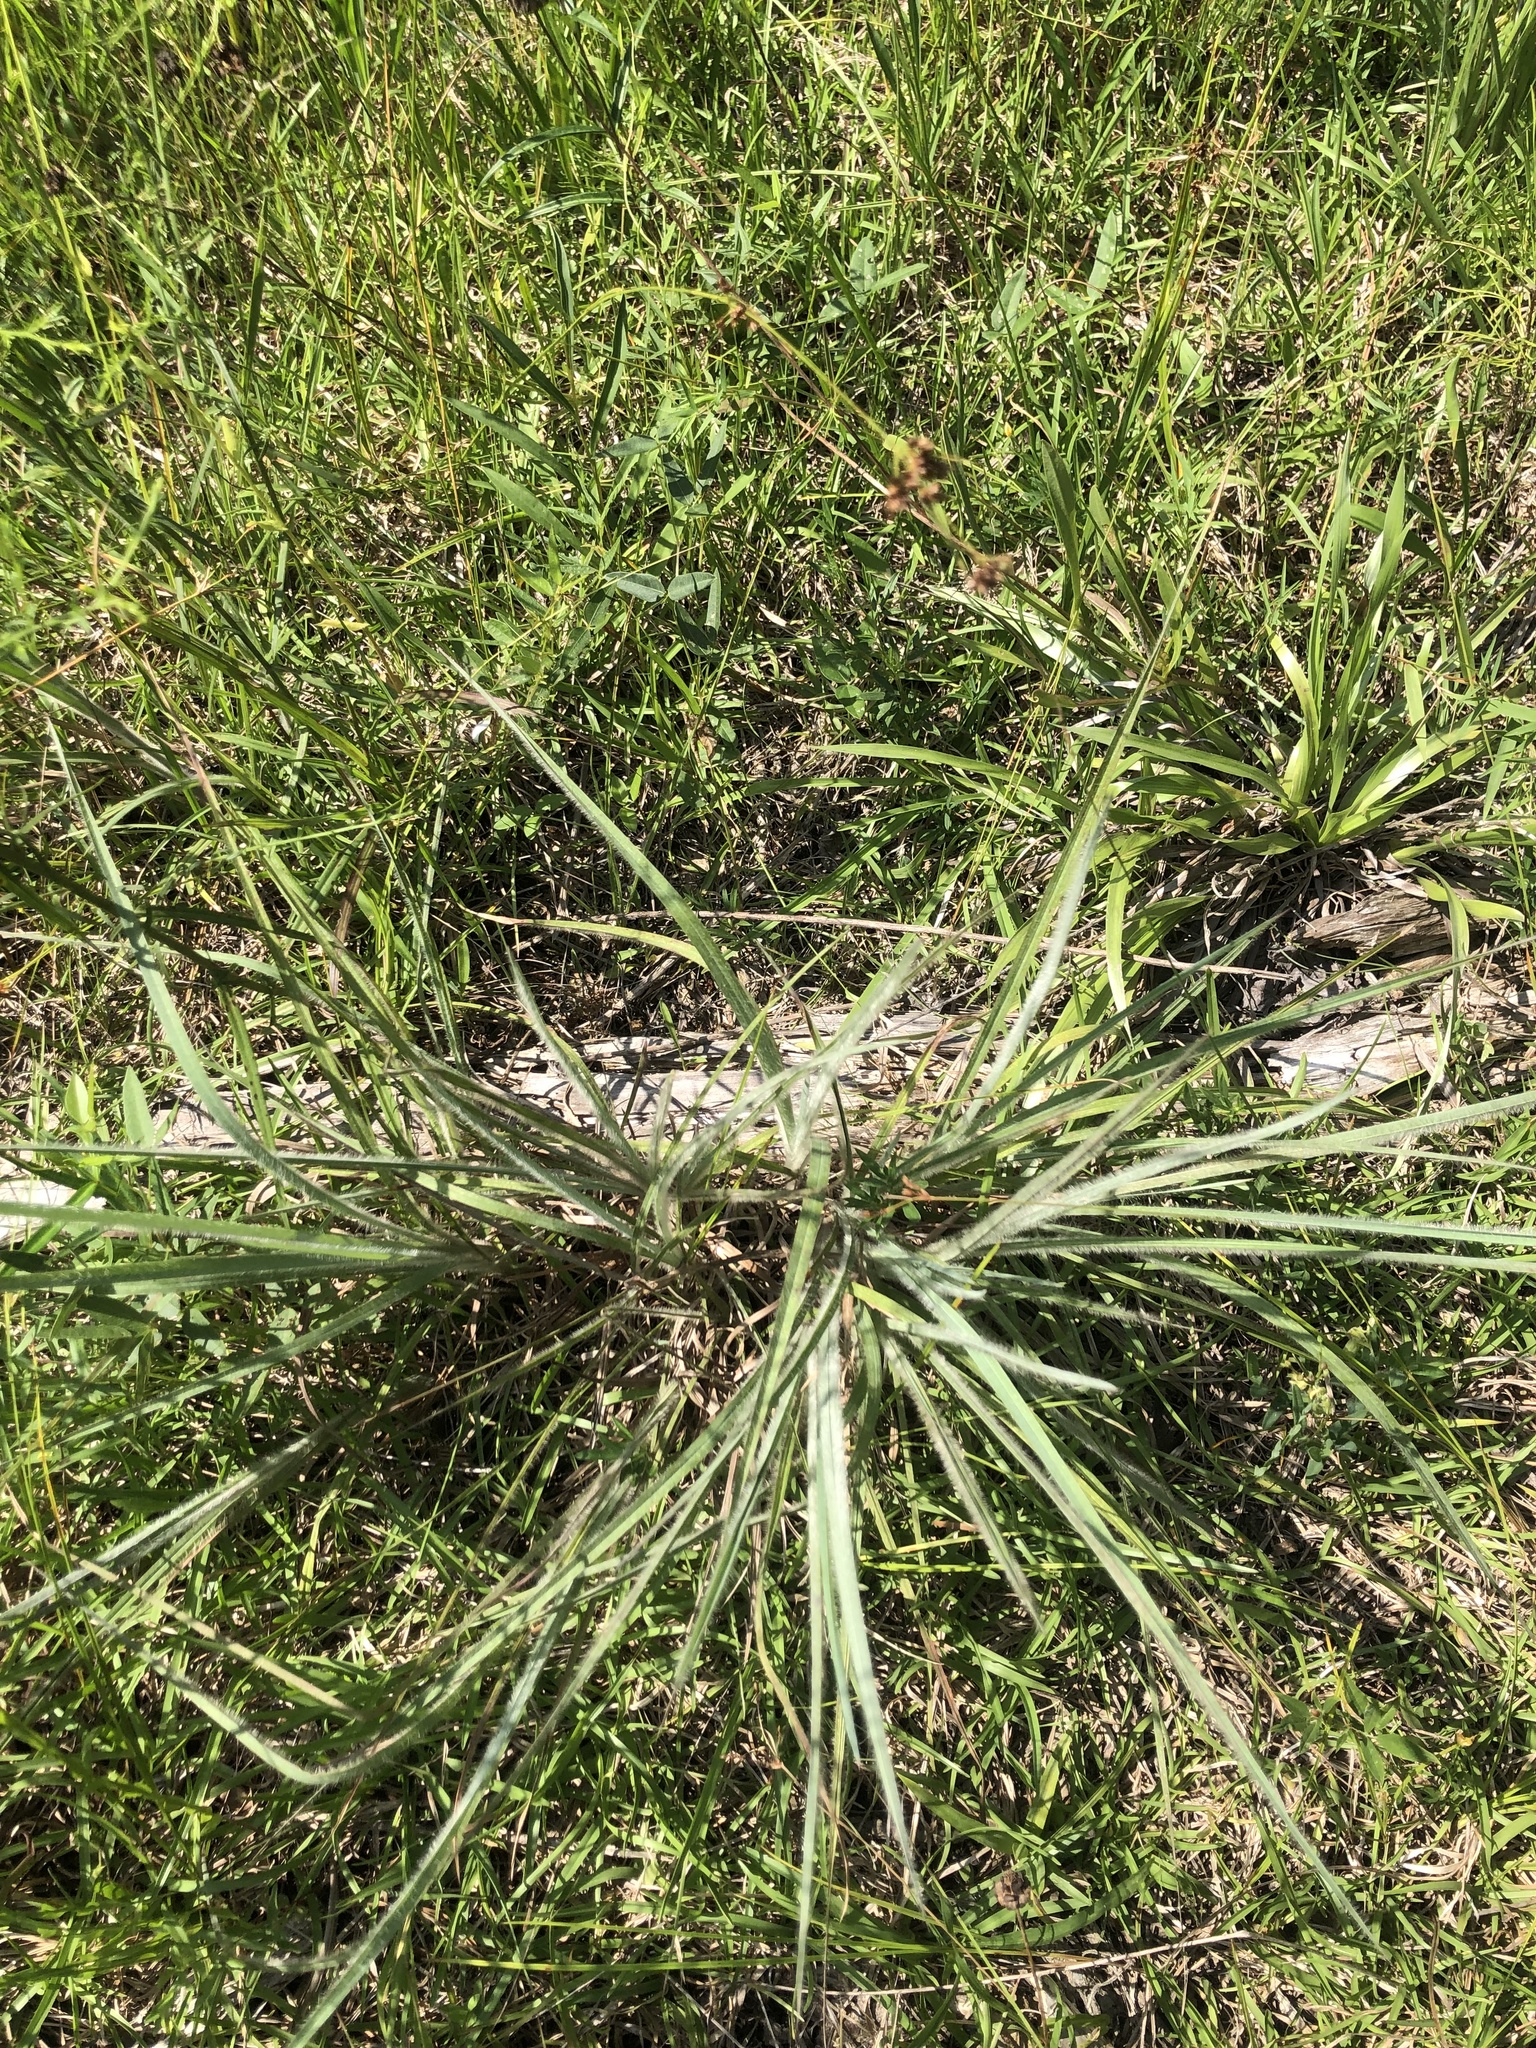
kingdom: Plantae
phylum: Tracheophyta
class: Liliopsida
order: Poales
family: Poaceae
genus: Paspalum
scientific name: Paspalum floridanum
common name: Florida paspalum
